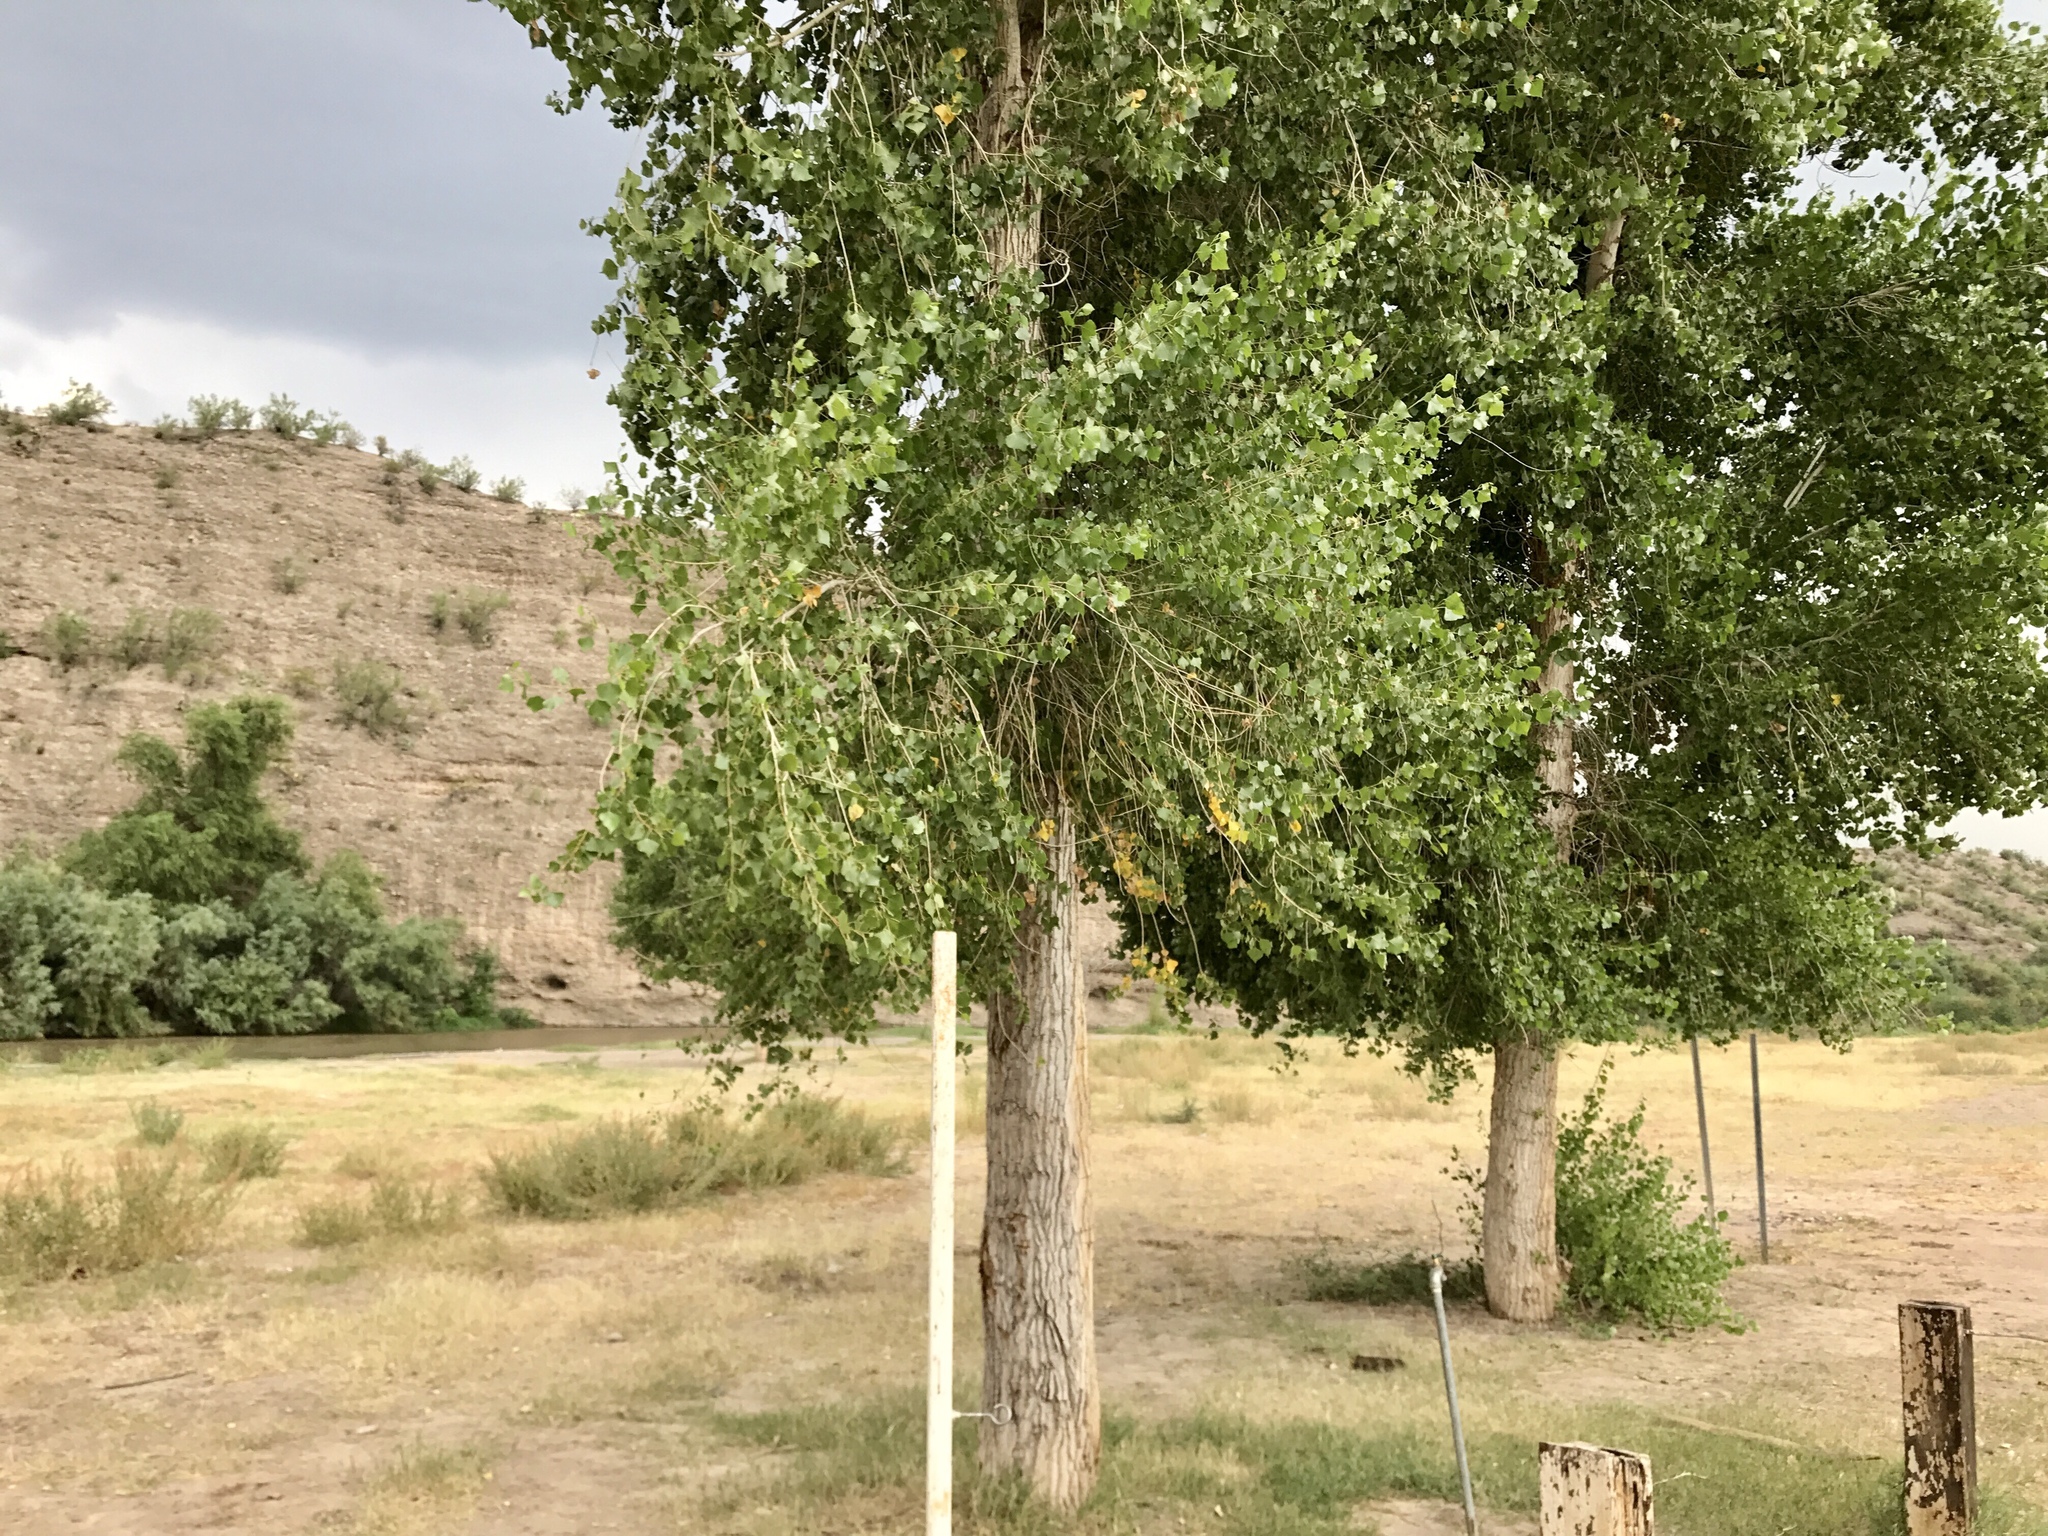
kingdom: Plantae
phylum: Tracheophyta
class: Magnoliopsida
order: Malpighiales
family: Salicaceae
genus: Populus
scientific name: Populus fremontii
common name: Fremont's cottonwood
